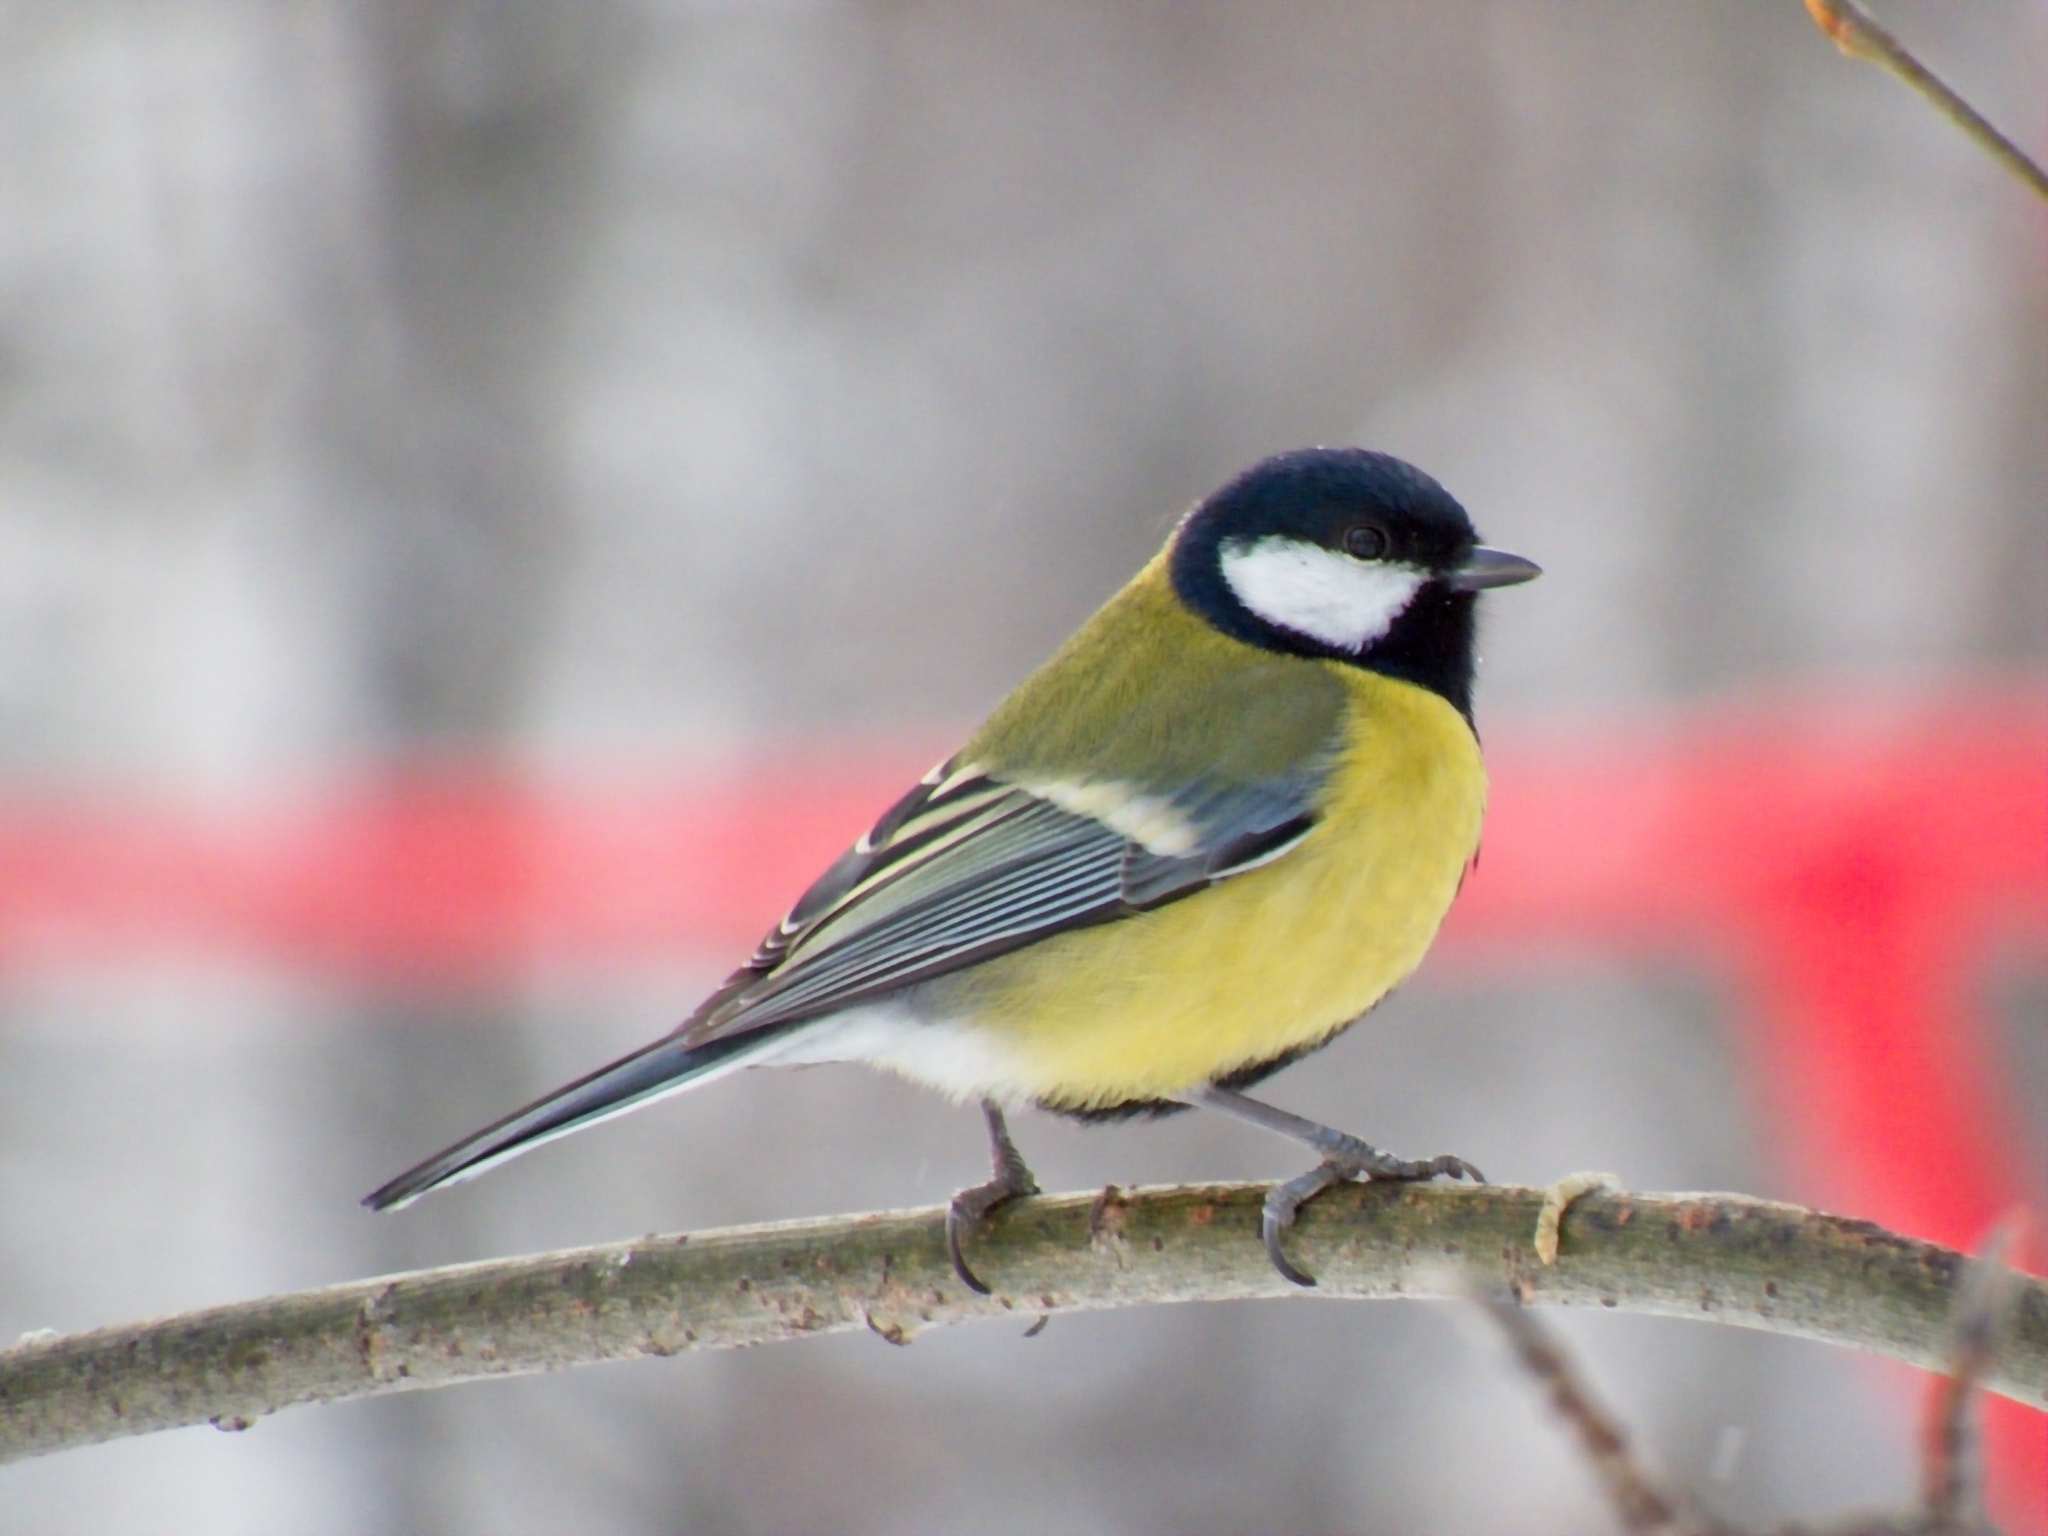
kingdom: Animalia
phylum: Chordata
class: Aves
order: Passeriformes
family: Paridae
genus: Parus
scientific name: Parus major
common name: Great tit
